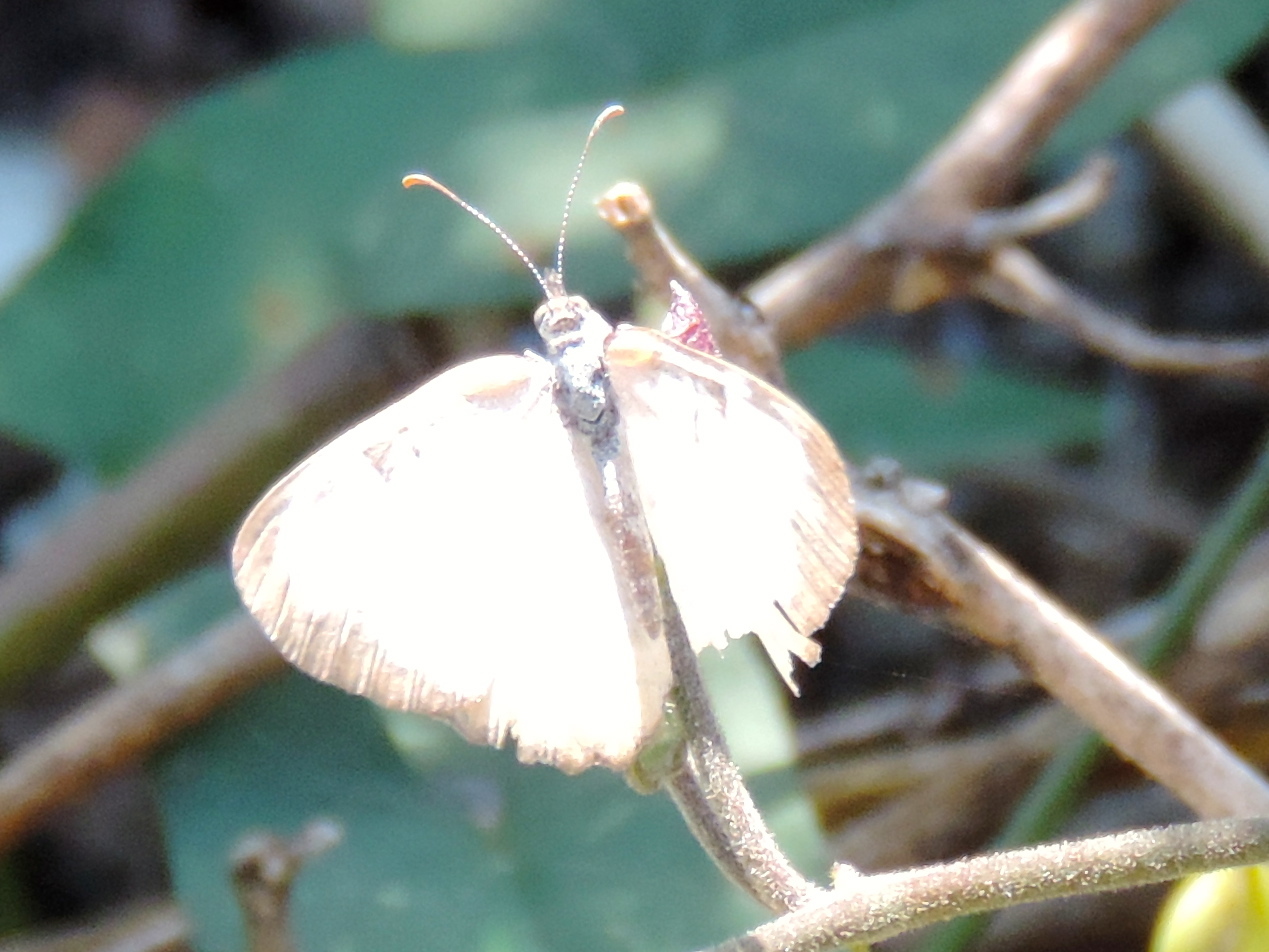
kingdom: Animalia
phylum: Arthropoda
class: Insecta
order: Lepidoptera
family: Nymphalidae
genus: Mestra
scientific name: Mestra amymone
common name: Common mestra
